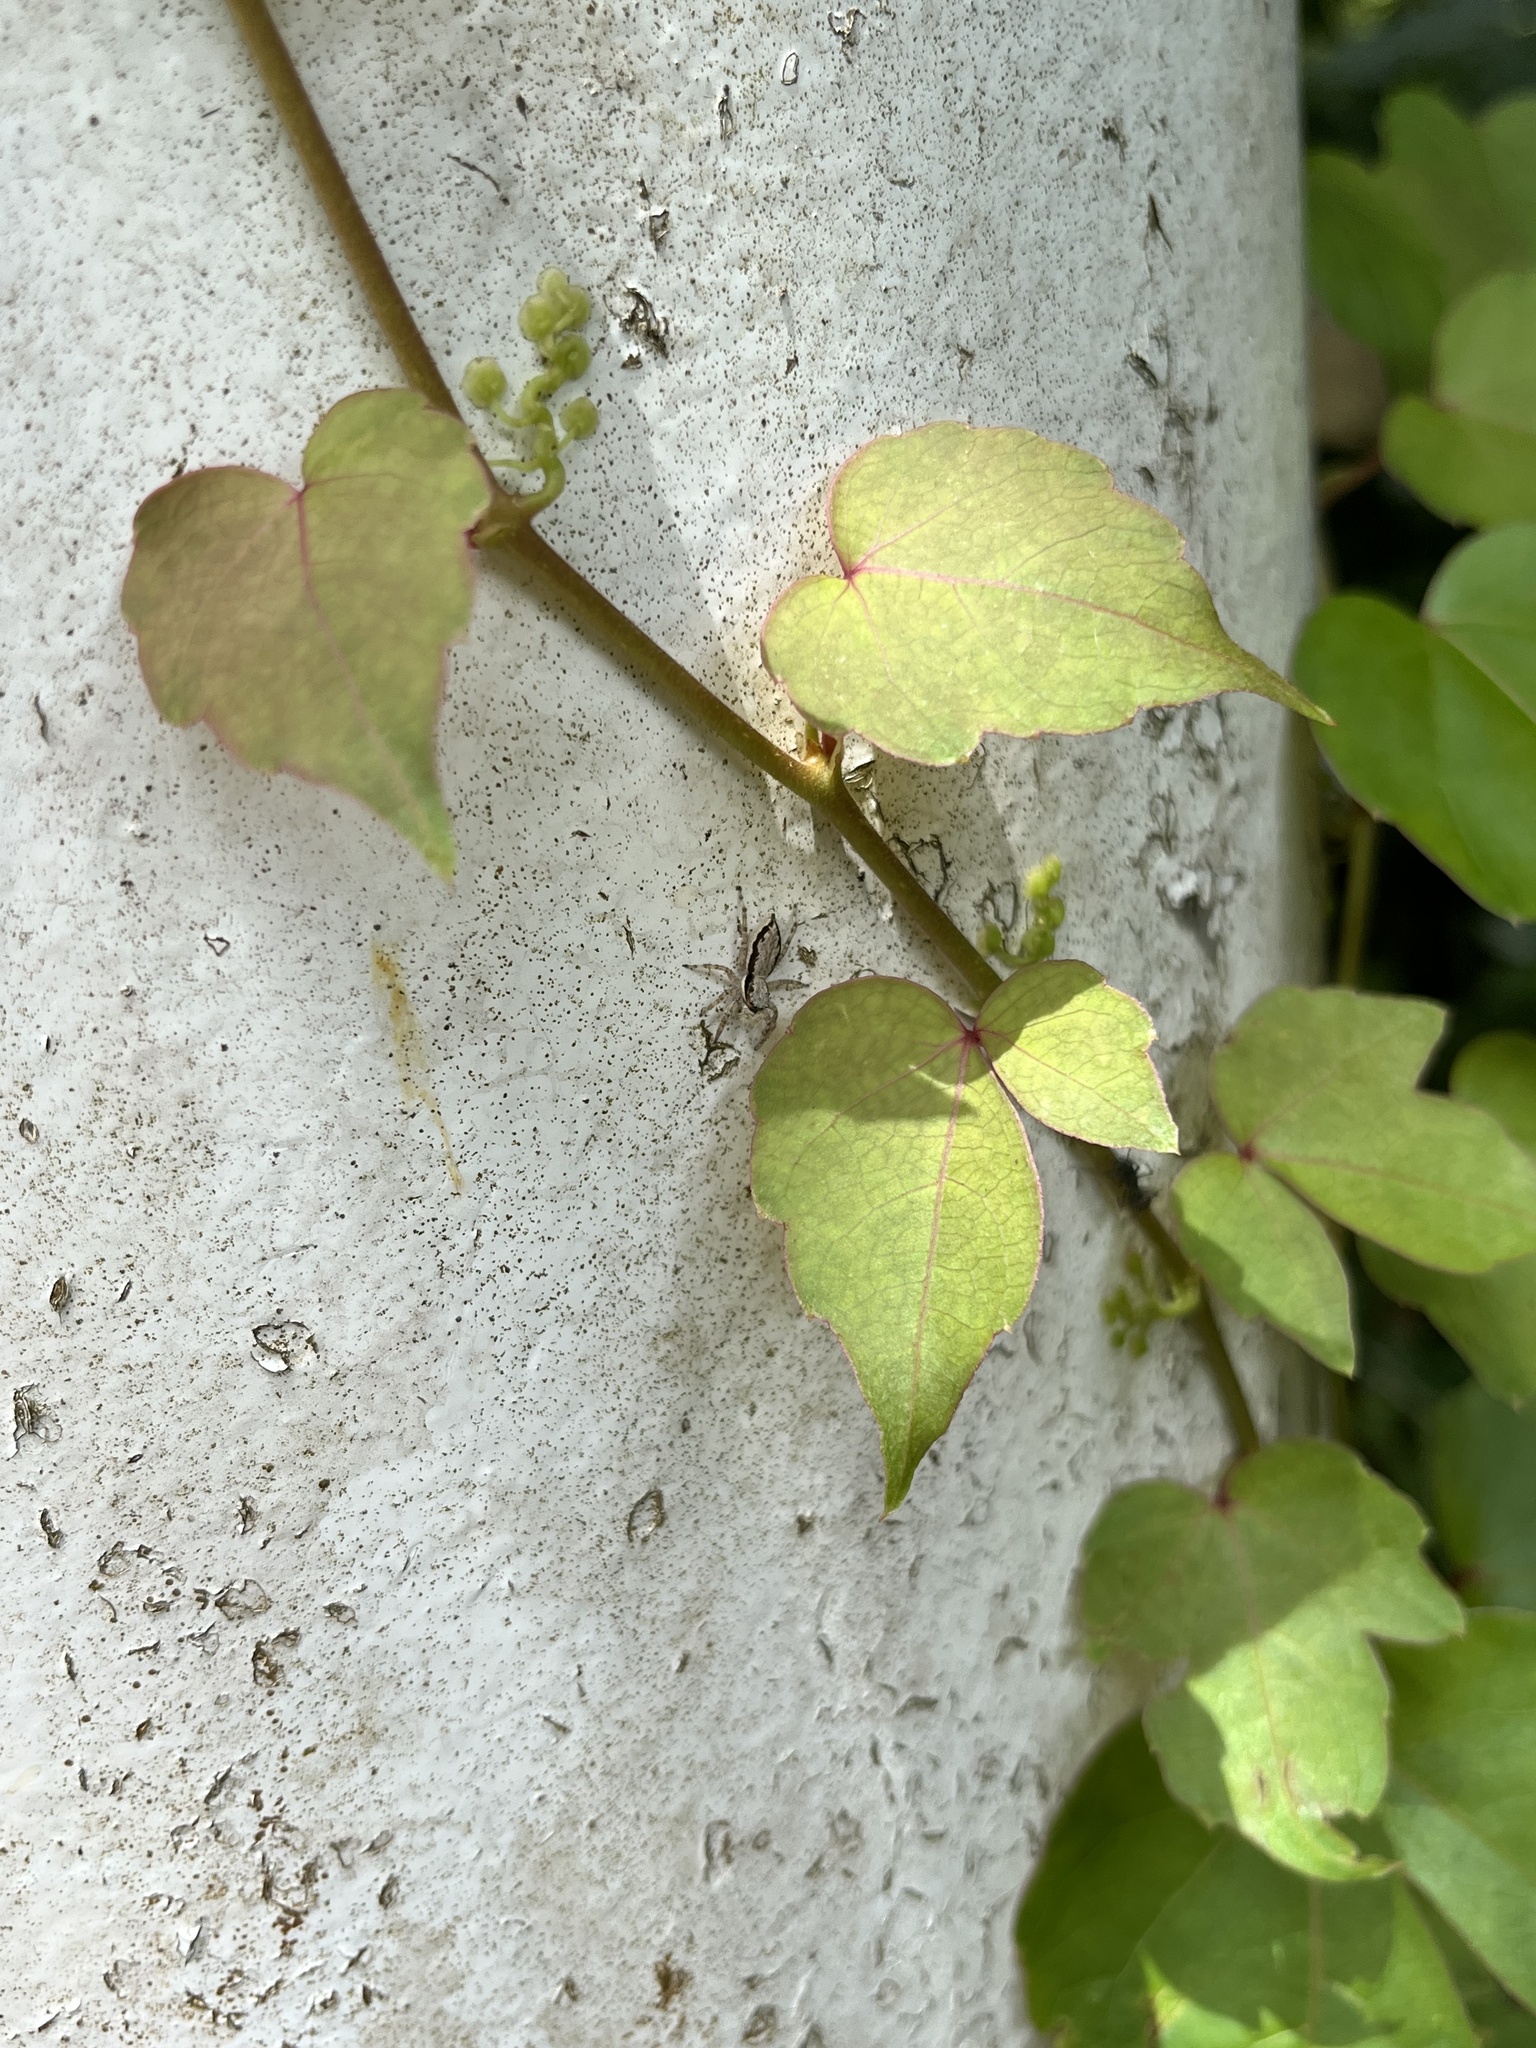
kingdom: Animalia
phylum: Arthropoda
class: Arachnida
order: Araneae
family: Salticidae
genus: Menemerus
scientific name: Menemerus bivittatus
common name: Gray wall jumper
